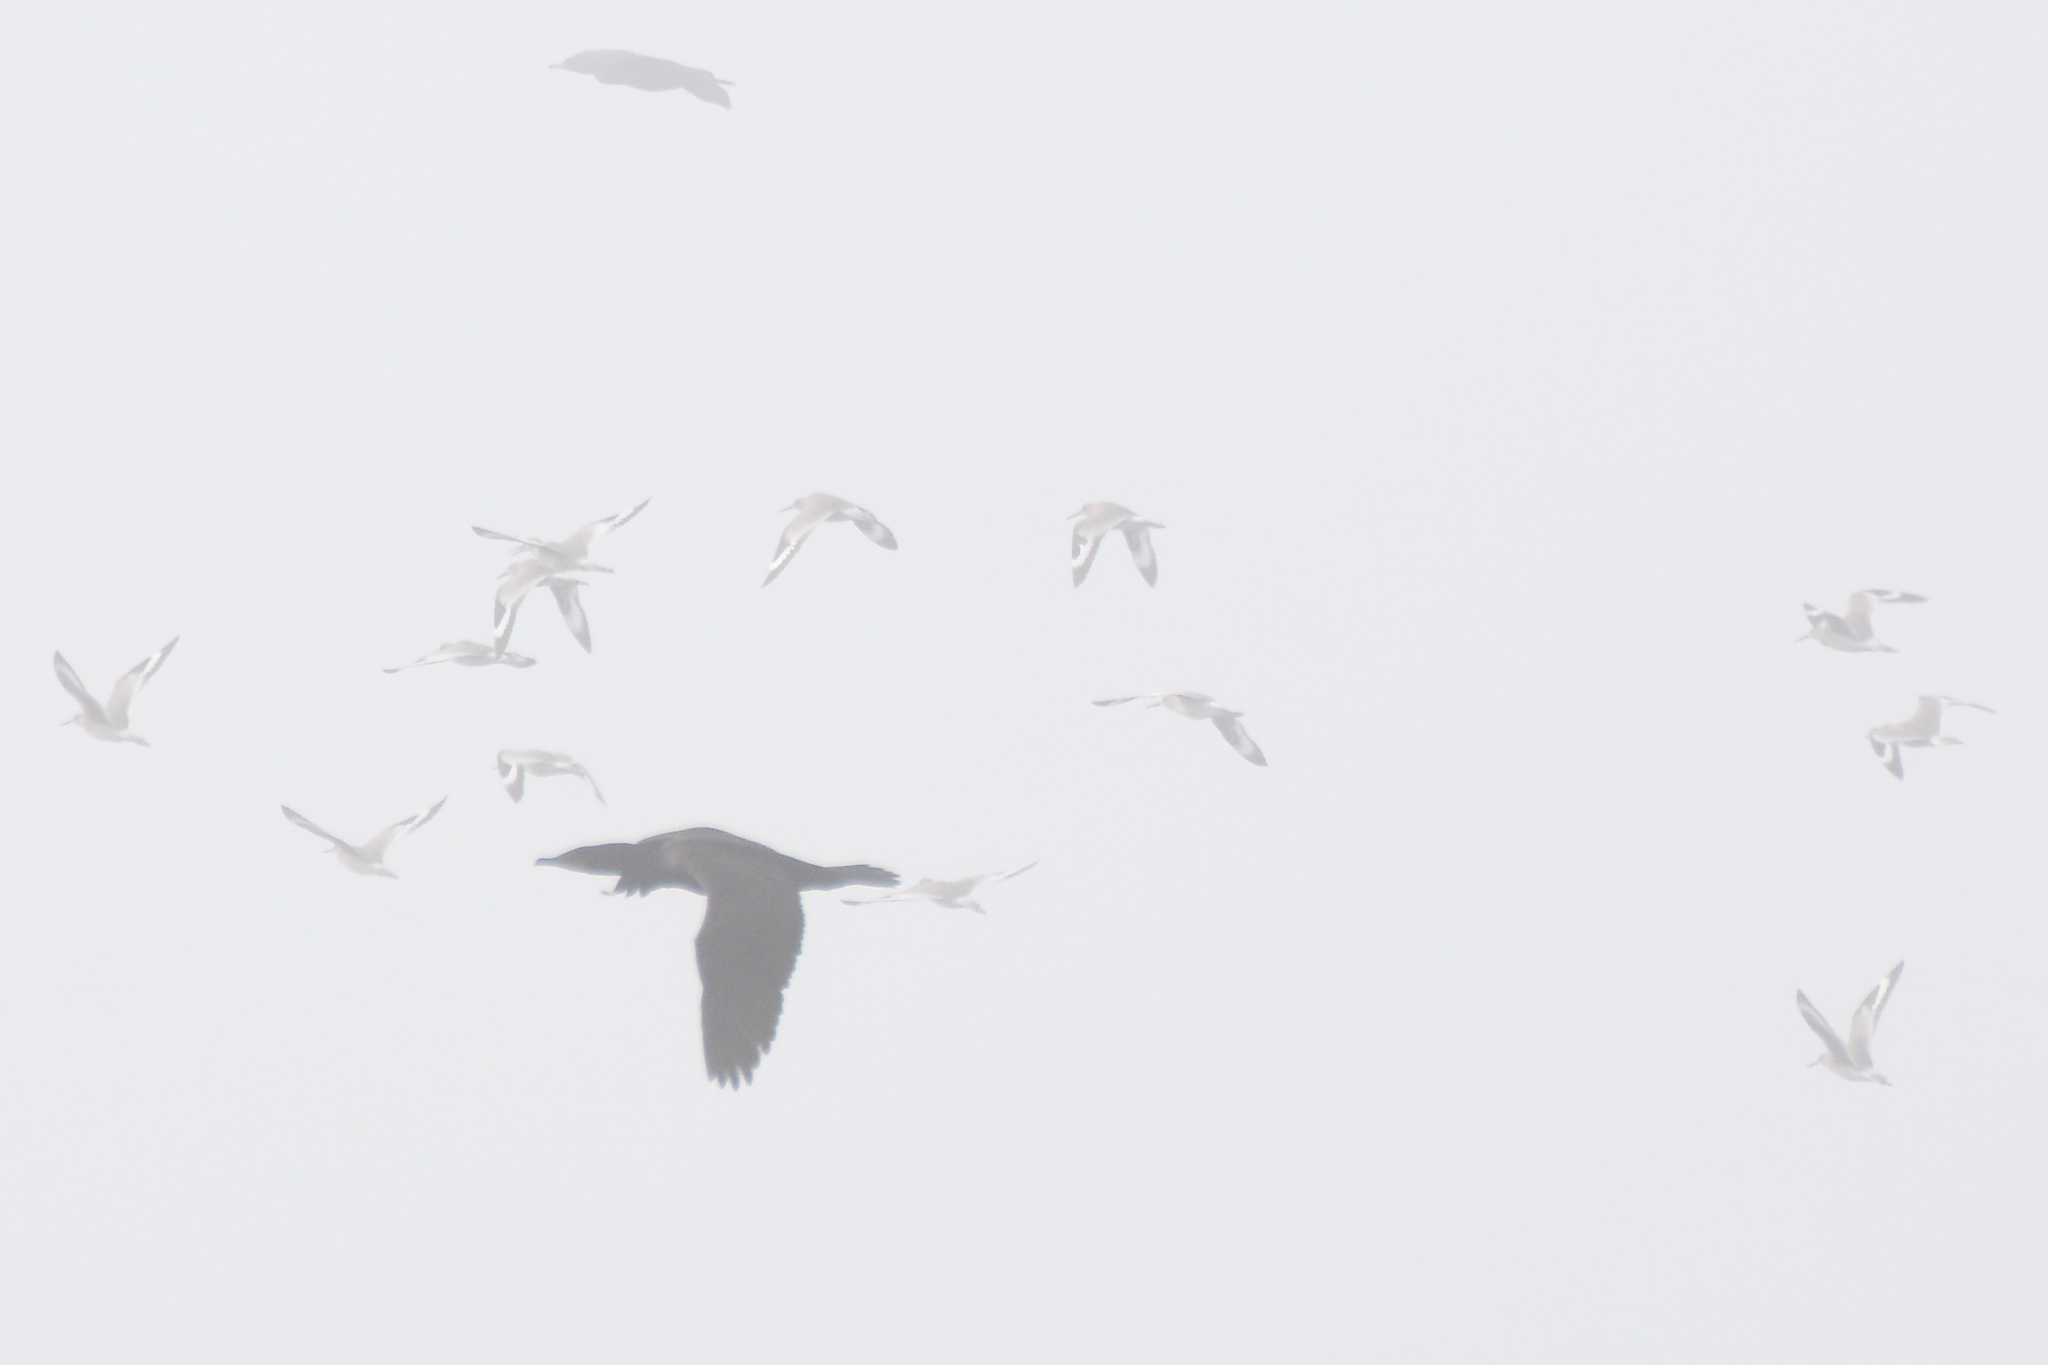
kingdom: Animalia
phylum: Chordata
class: Aves
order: Charadriiformes
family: Scolopacidae
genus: Tringa
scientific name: Tringa semipalmata
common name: Willet
